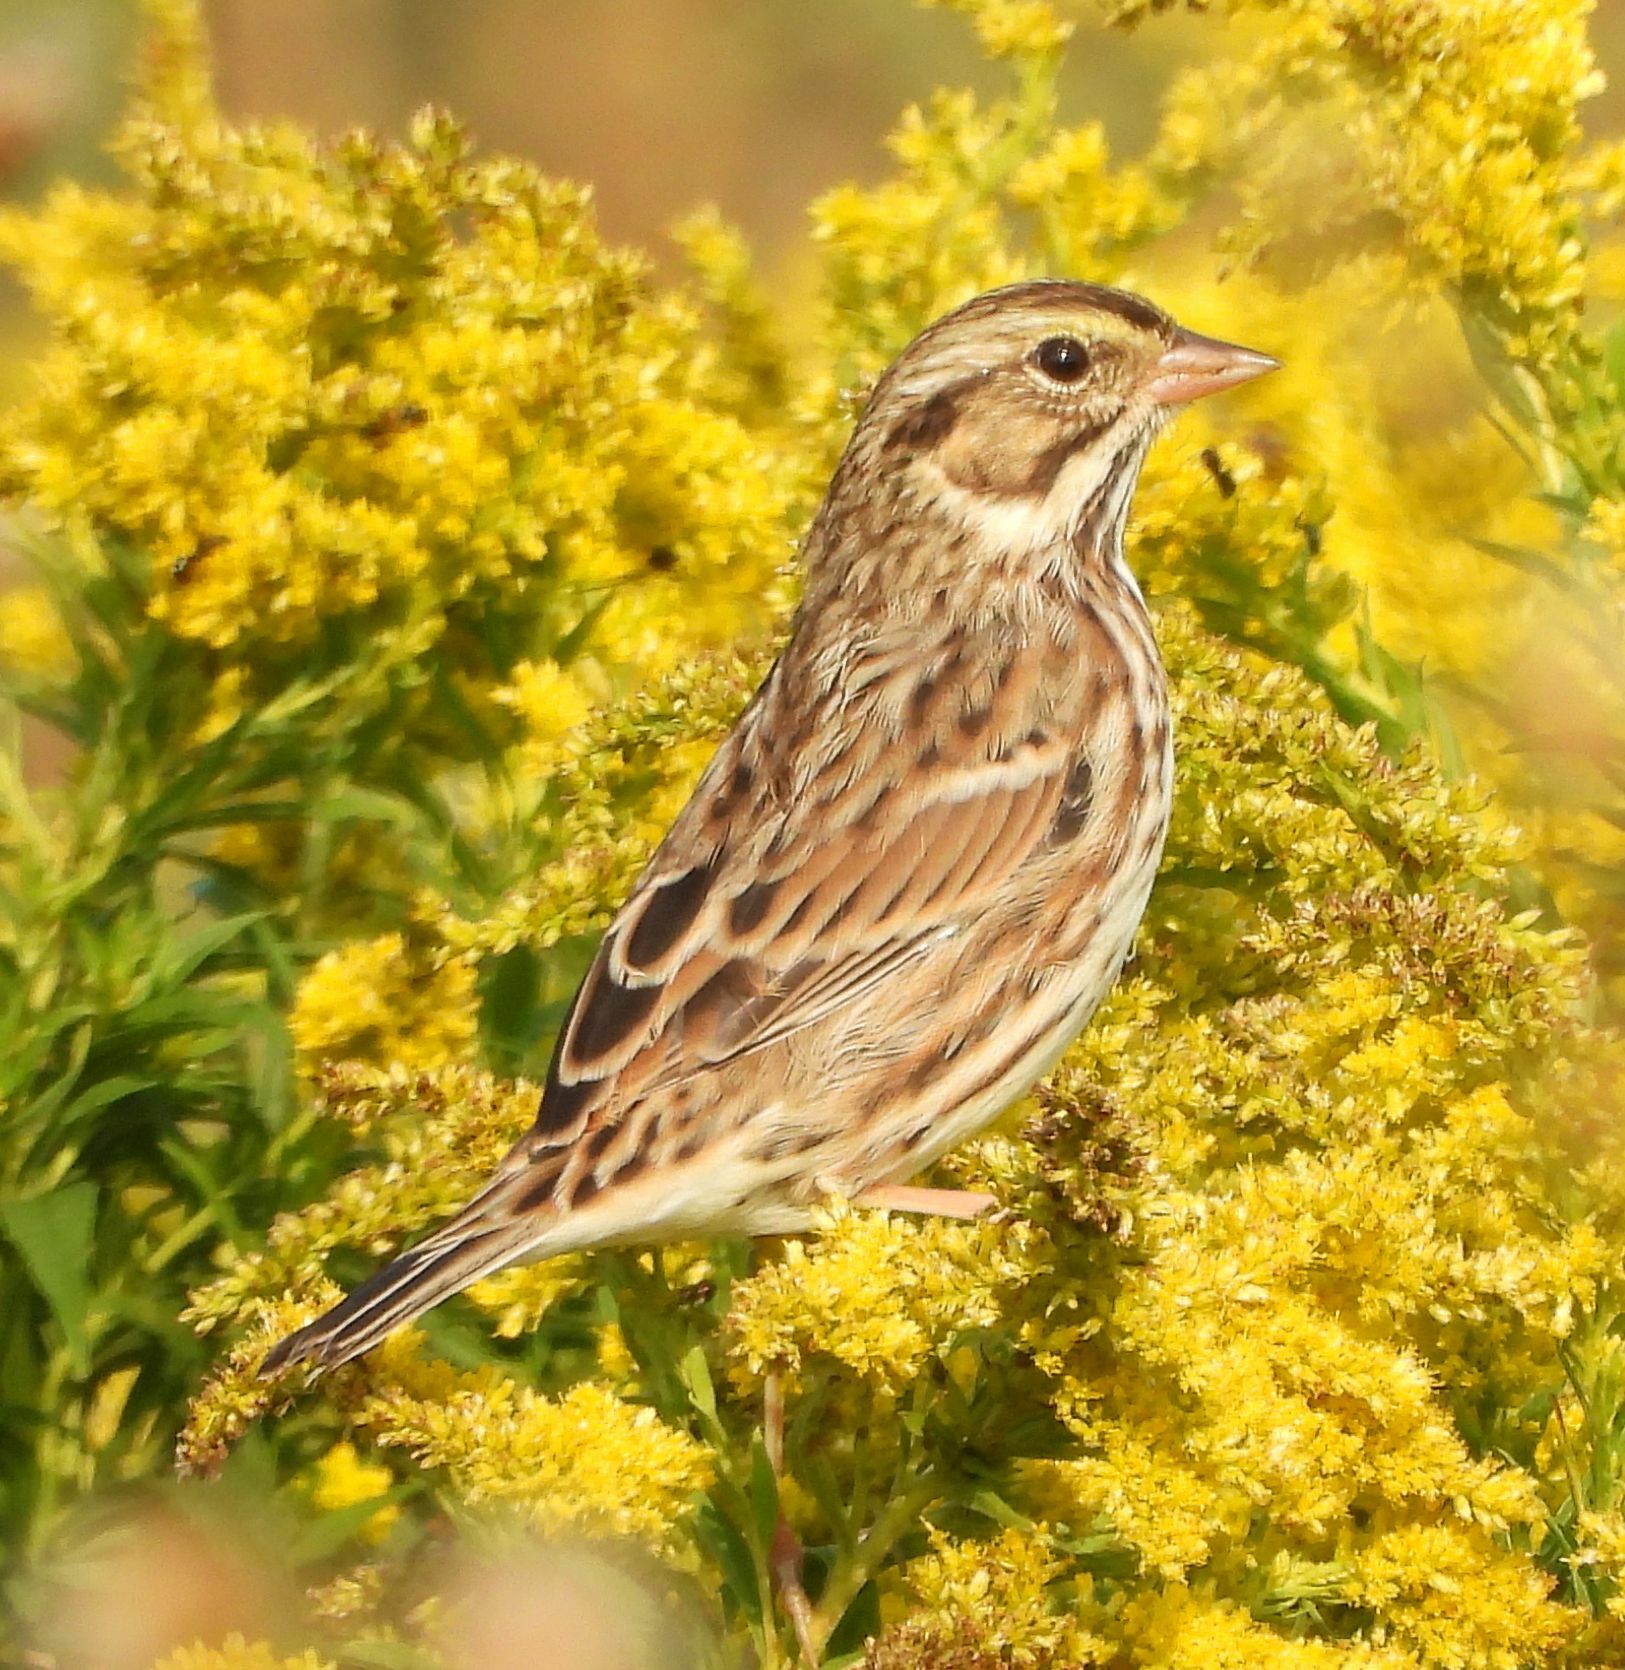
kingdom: Animalia
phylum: Chordata
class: Aves
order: Passeriformes
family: Passerellidae
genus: Passerculus
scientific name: Passerculus sandwichensis
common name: Savannah sparrow
